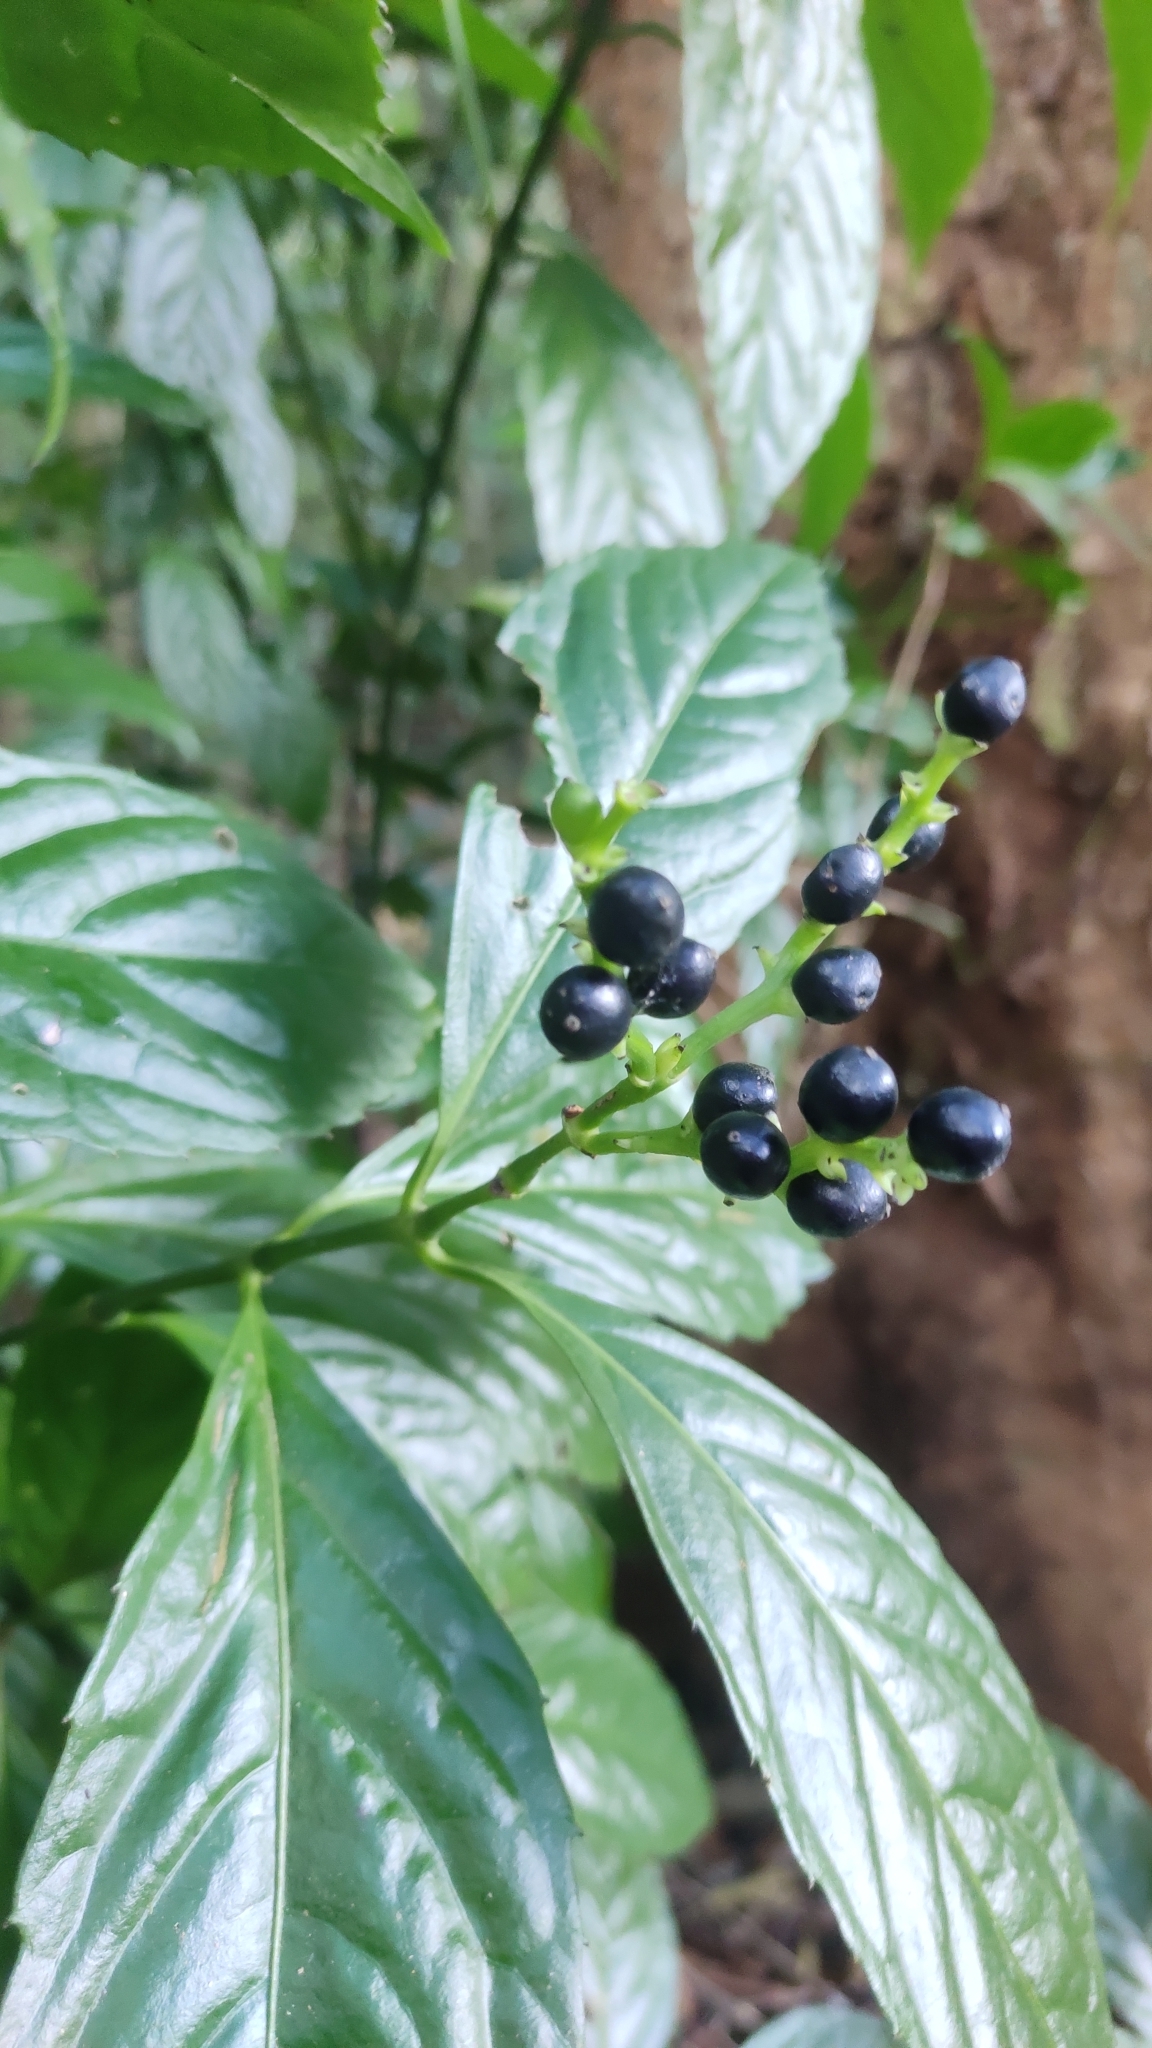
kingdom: Plantae
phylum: Tracheophyta
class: Magnoliopsida
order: Chloranthales
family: Chloranthaceae
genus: Sarcandra
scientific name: Sarcandra glabra
